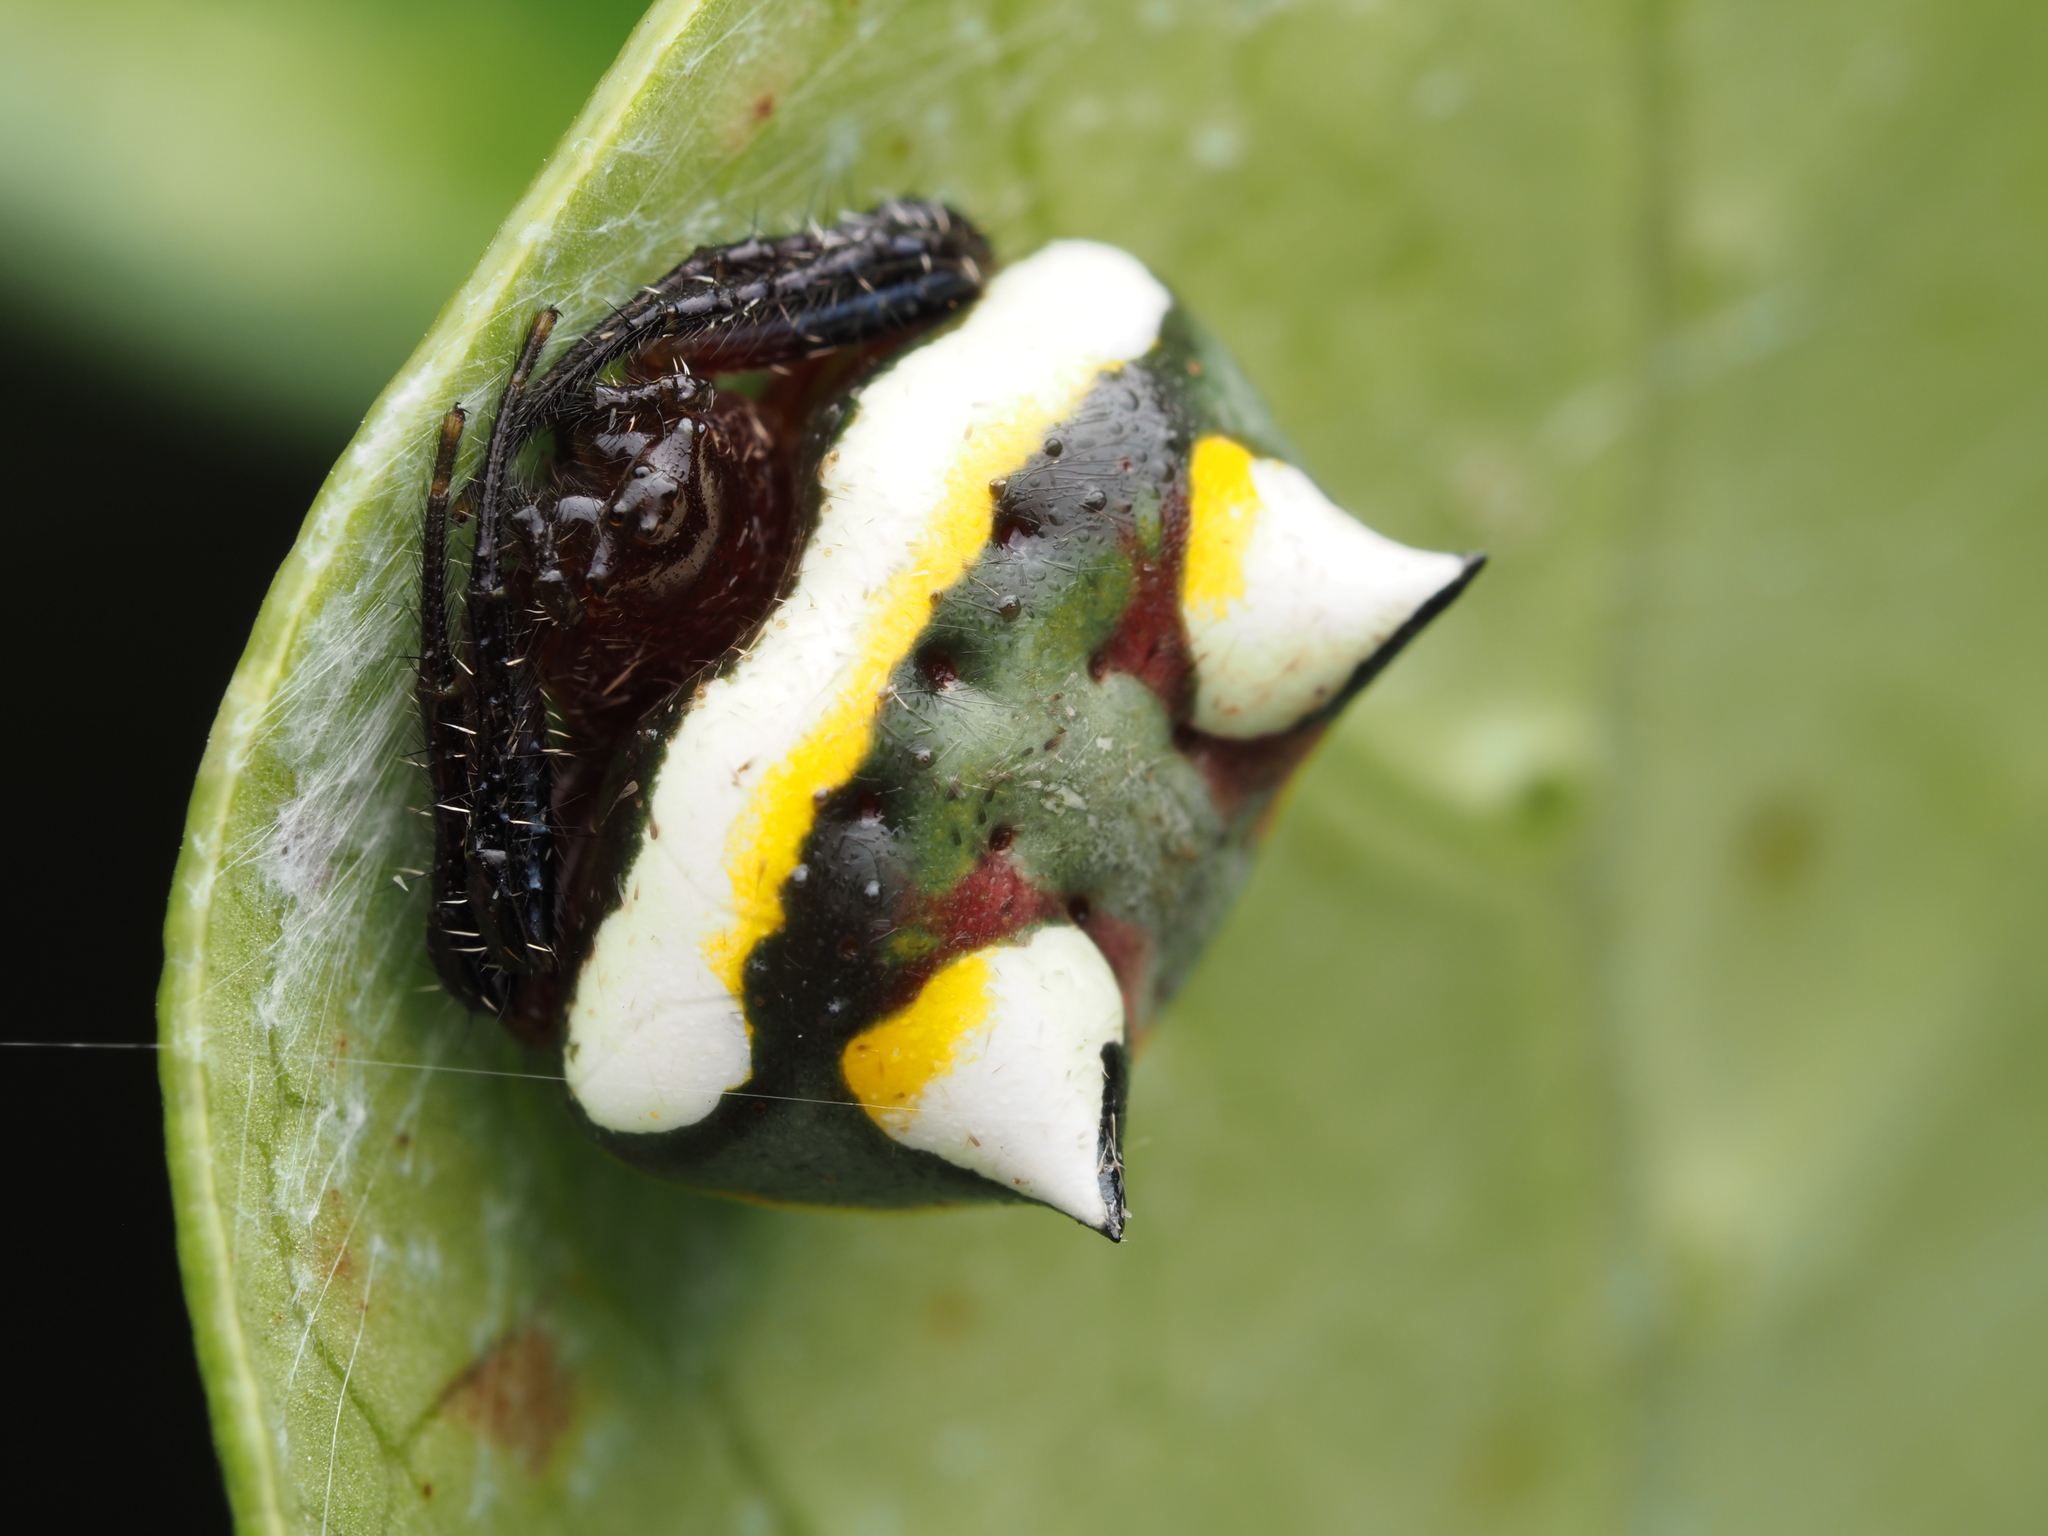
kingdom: Animalia
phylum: Arthropoda
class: Arachnida
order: Araneae
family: Araneidae
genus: Poecilopachys
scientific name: Poecilopachys australasia
